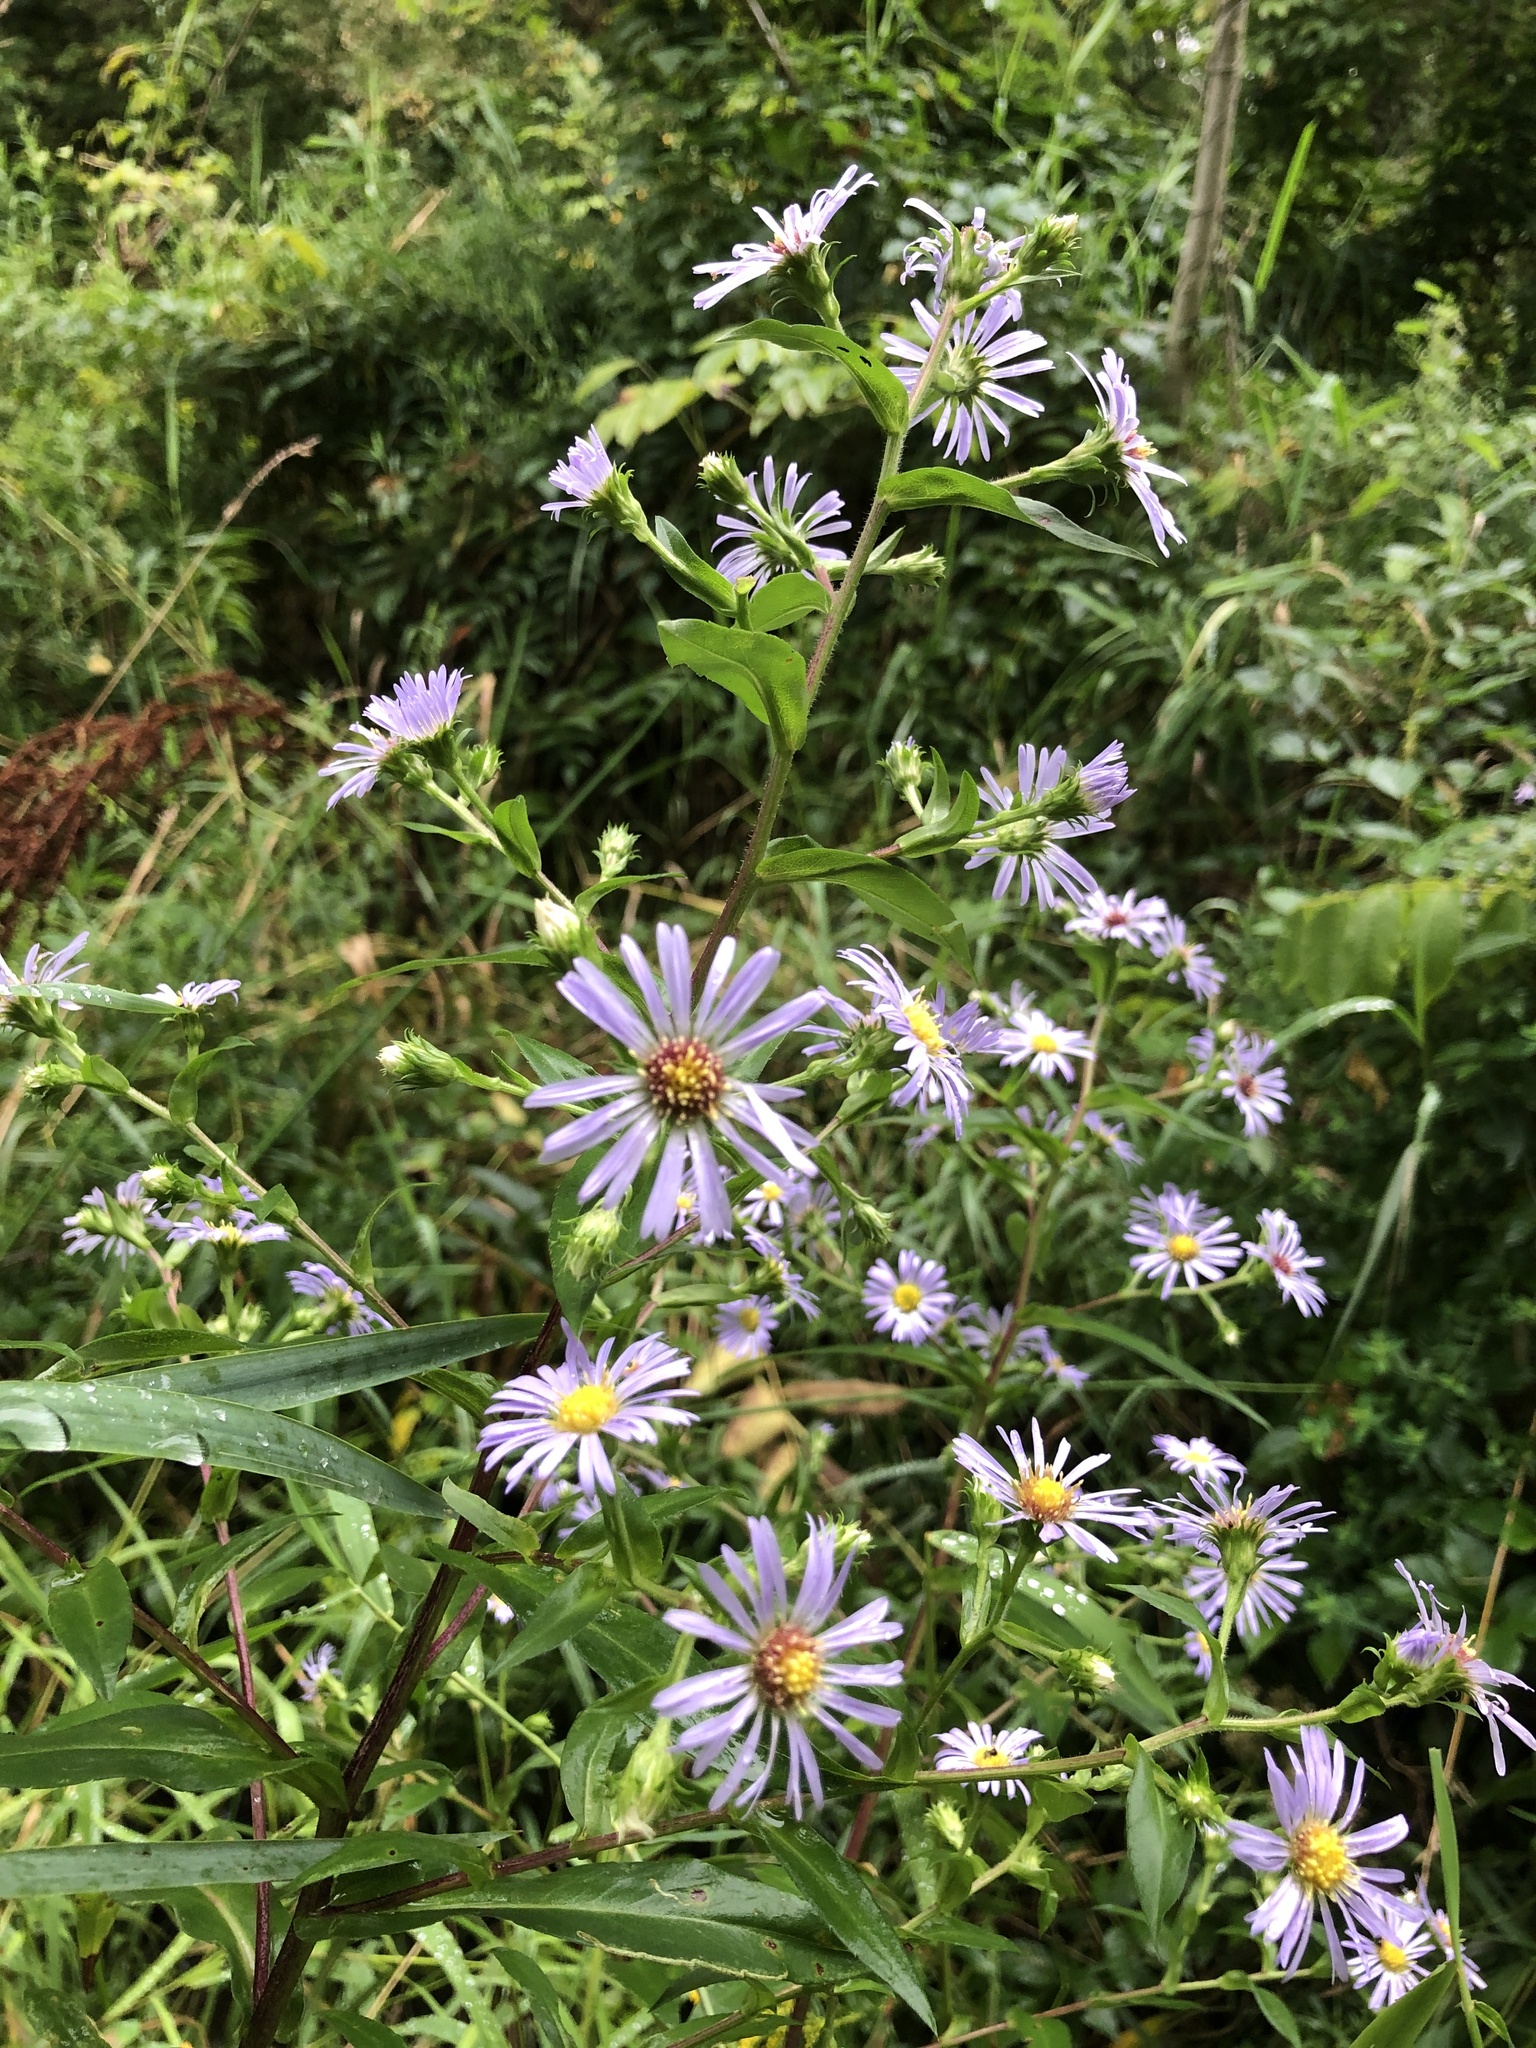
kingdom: Plantae
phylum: Tracheophyta
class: Magnoliopsida
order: Asterales
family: Asteraceae
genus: Symphyotrichum
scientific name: Symphyotrichum puniceum
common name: Bog aster
